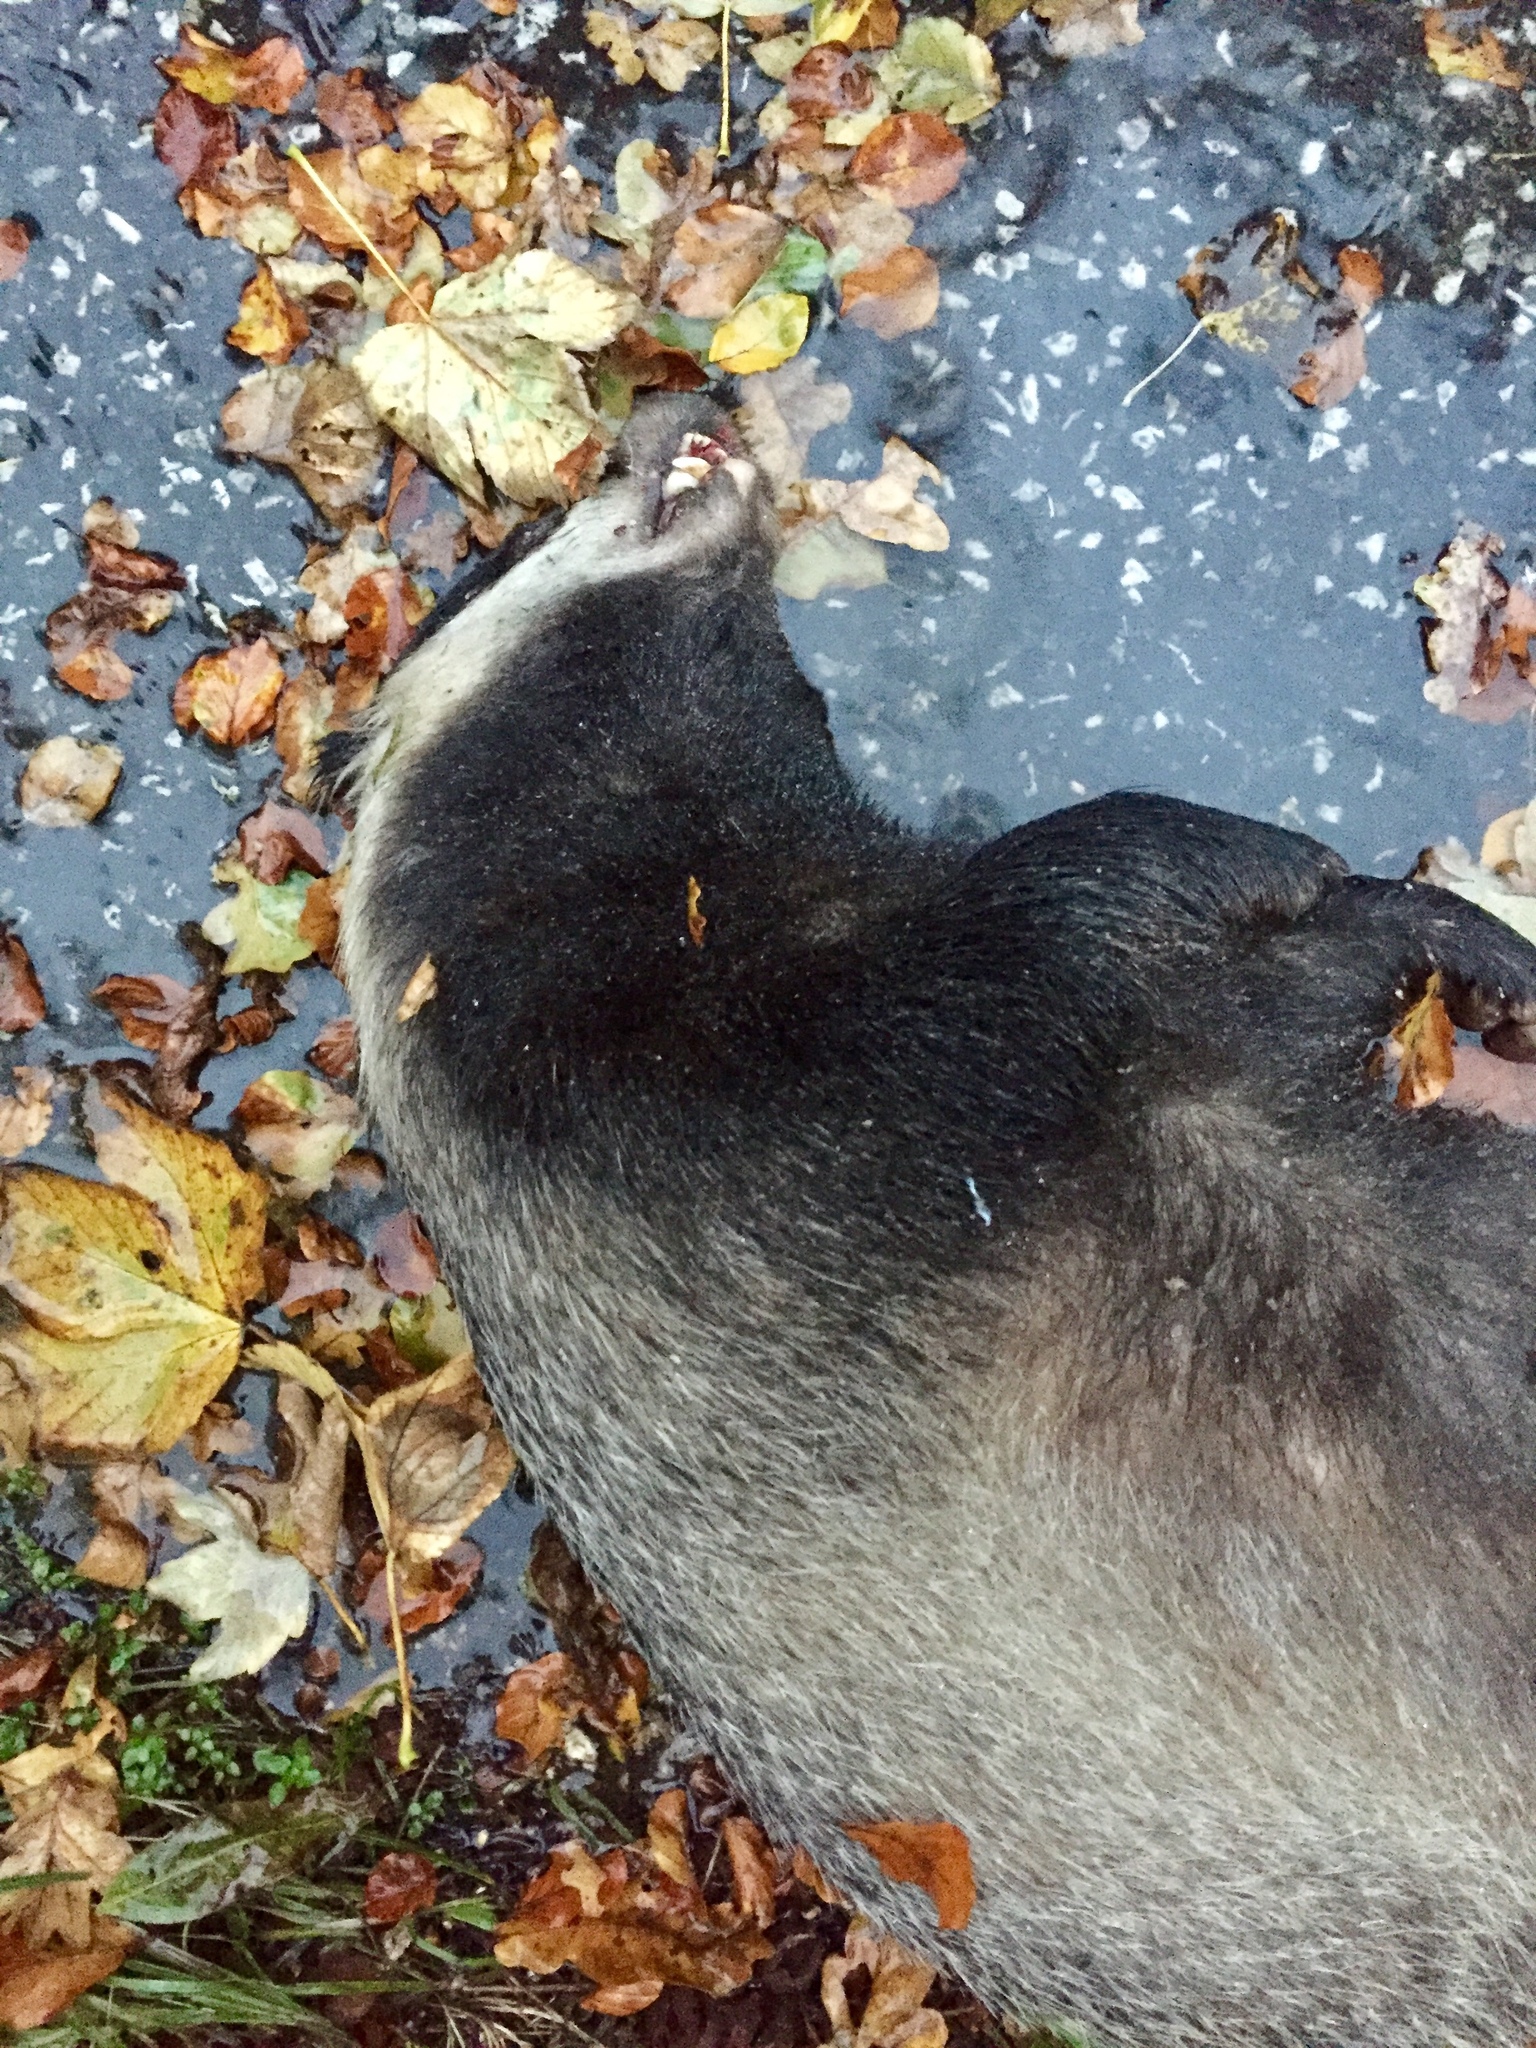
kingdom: Animalia
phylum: Chordata
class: Mammalia
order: Carnivora
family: Mustelidae
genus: Meles
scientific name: Meles meles
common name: Eurasian badger
